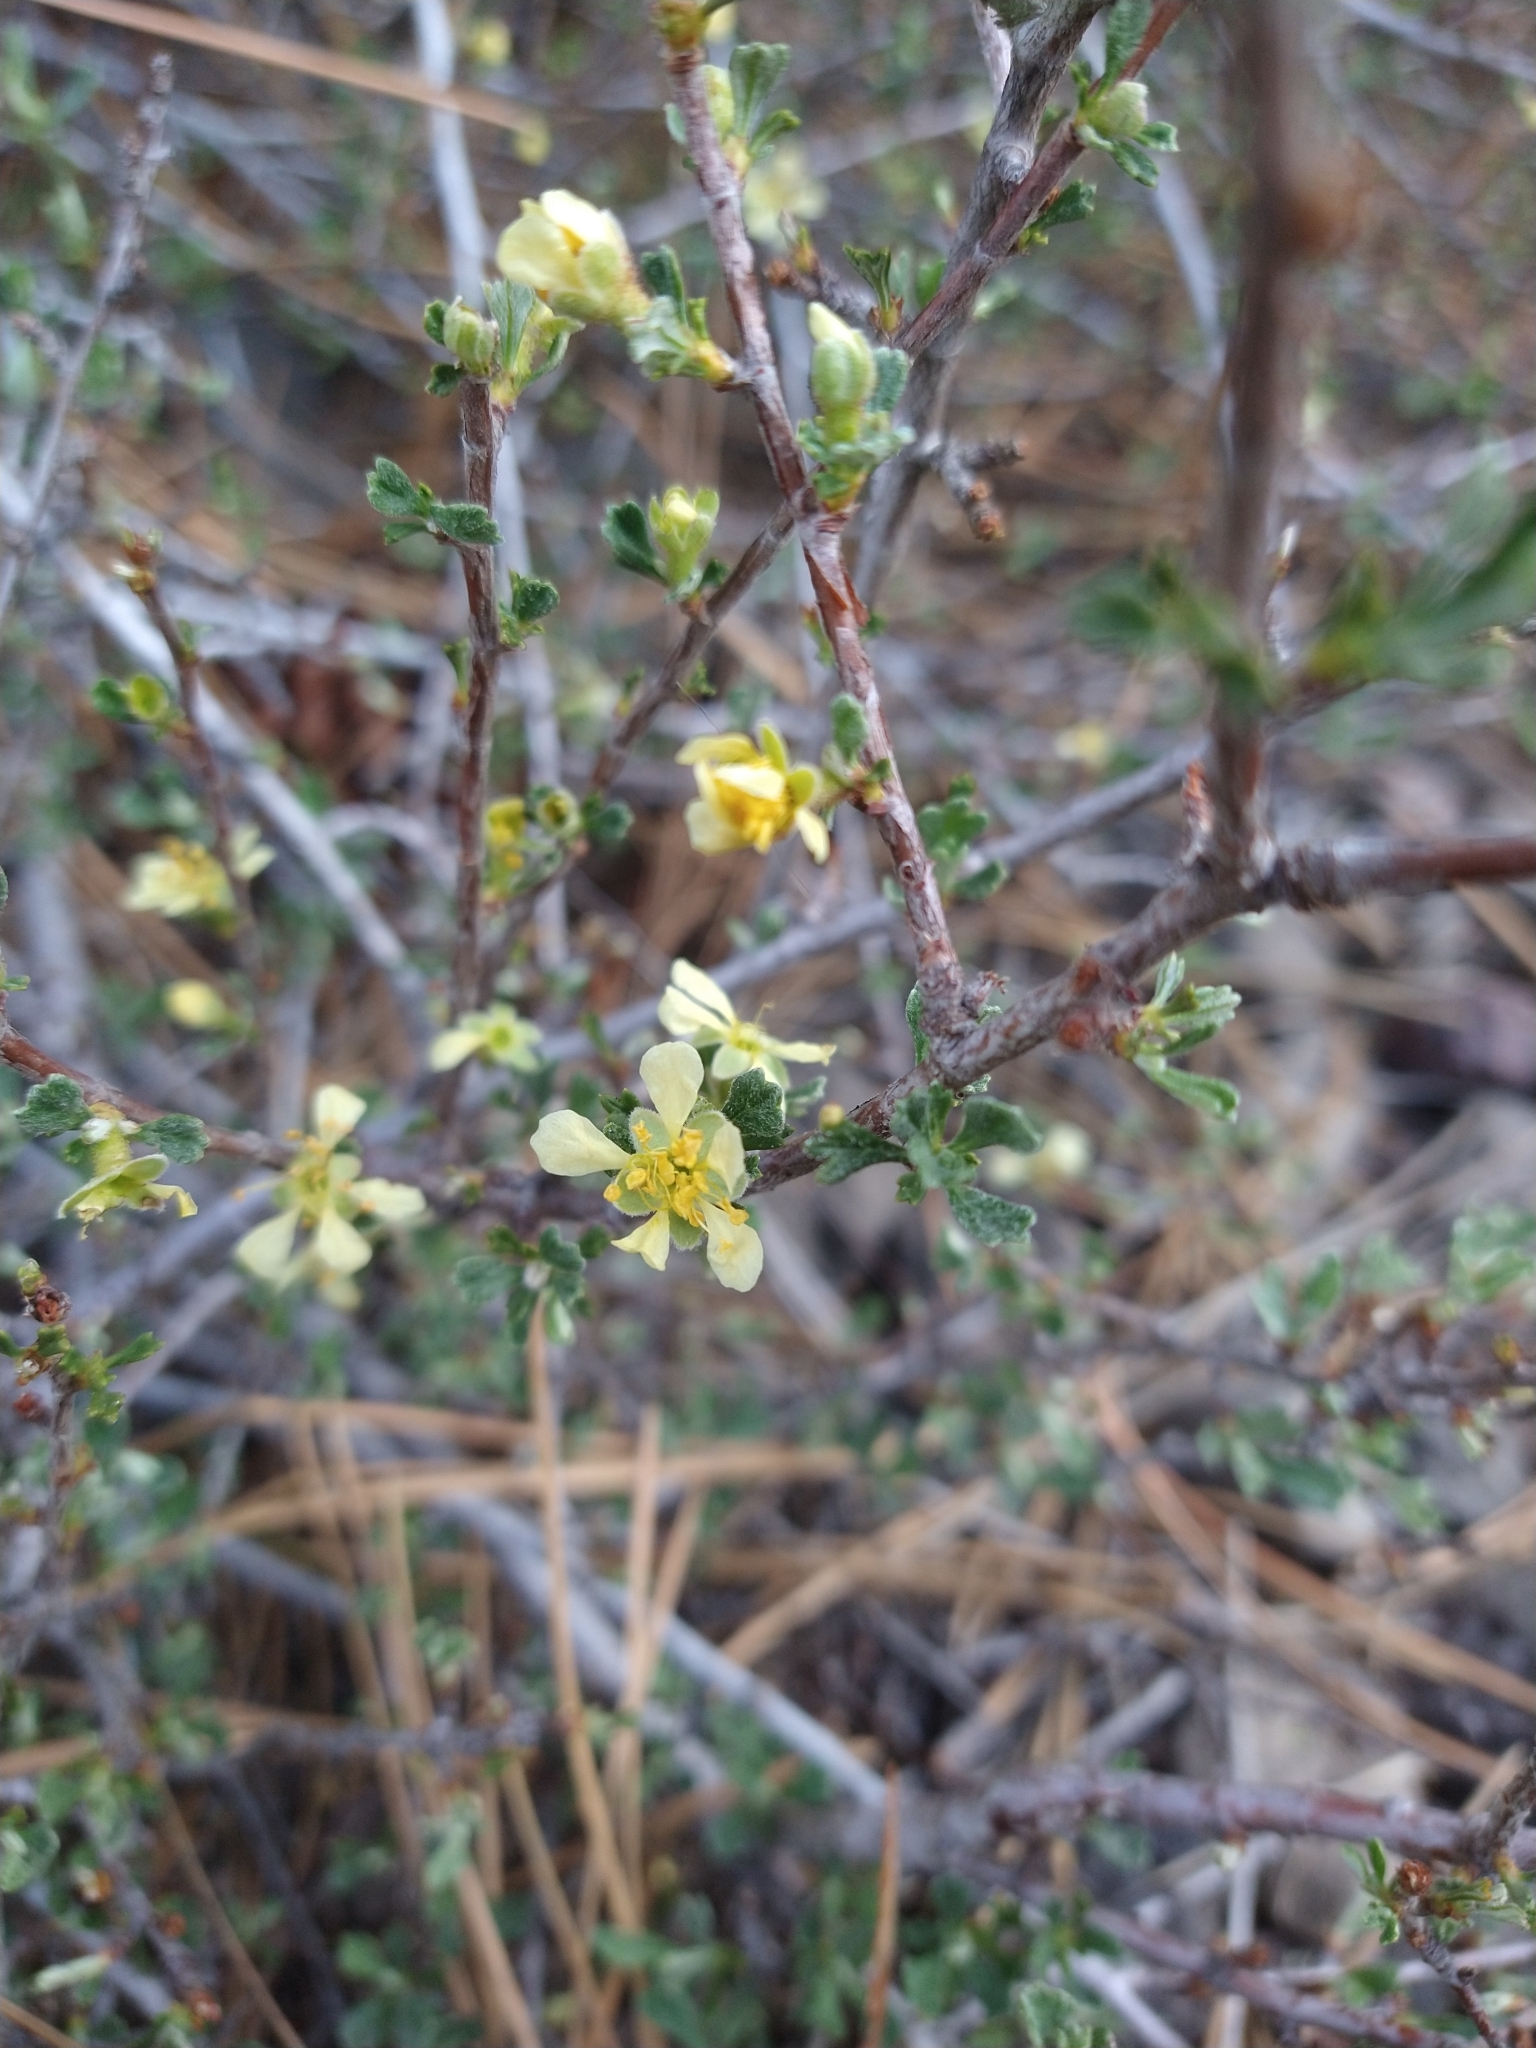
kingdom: Plantae
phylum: Tracheophyta
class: Magnoliopsida
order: Rosales
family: Rosaceae
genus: Purshia
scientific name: Purshia tridentata
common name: Antelope bitterbrush
